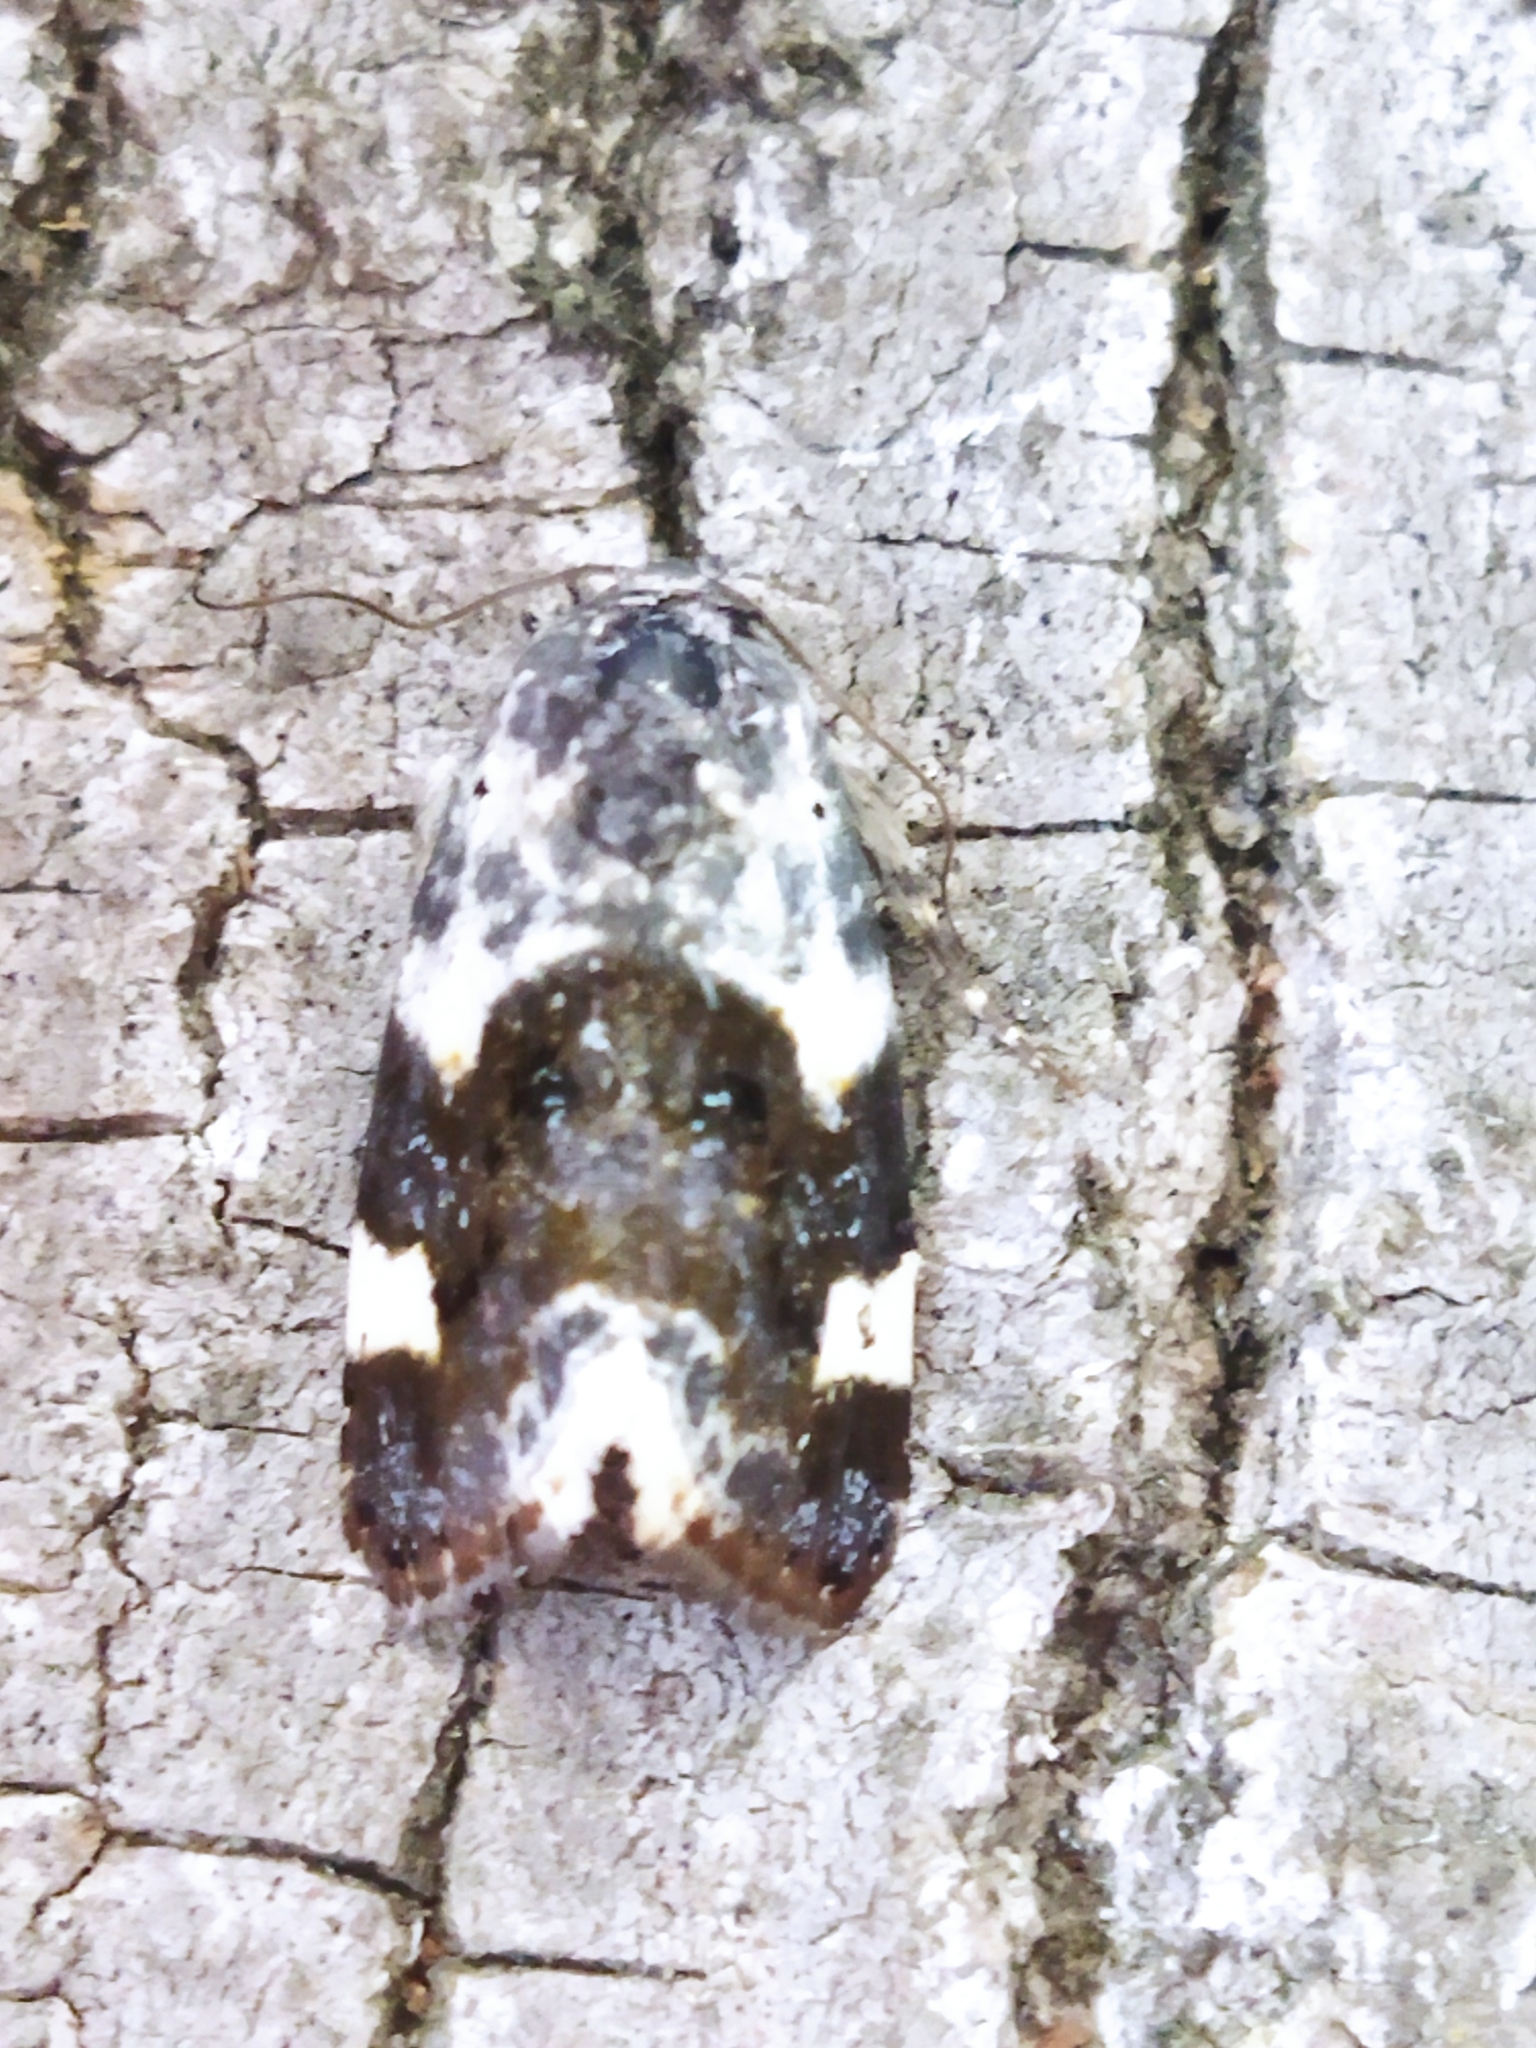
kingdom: Animalia
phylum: Arthropoda
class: Insecta
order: Lepidoptera
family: Noctuidae
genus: Acontia
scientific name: Acontia lucida
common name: Pale shoulder
